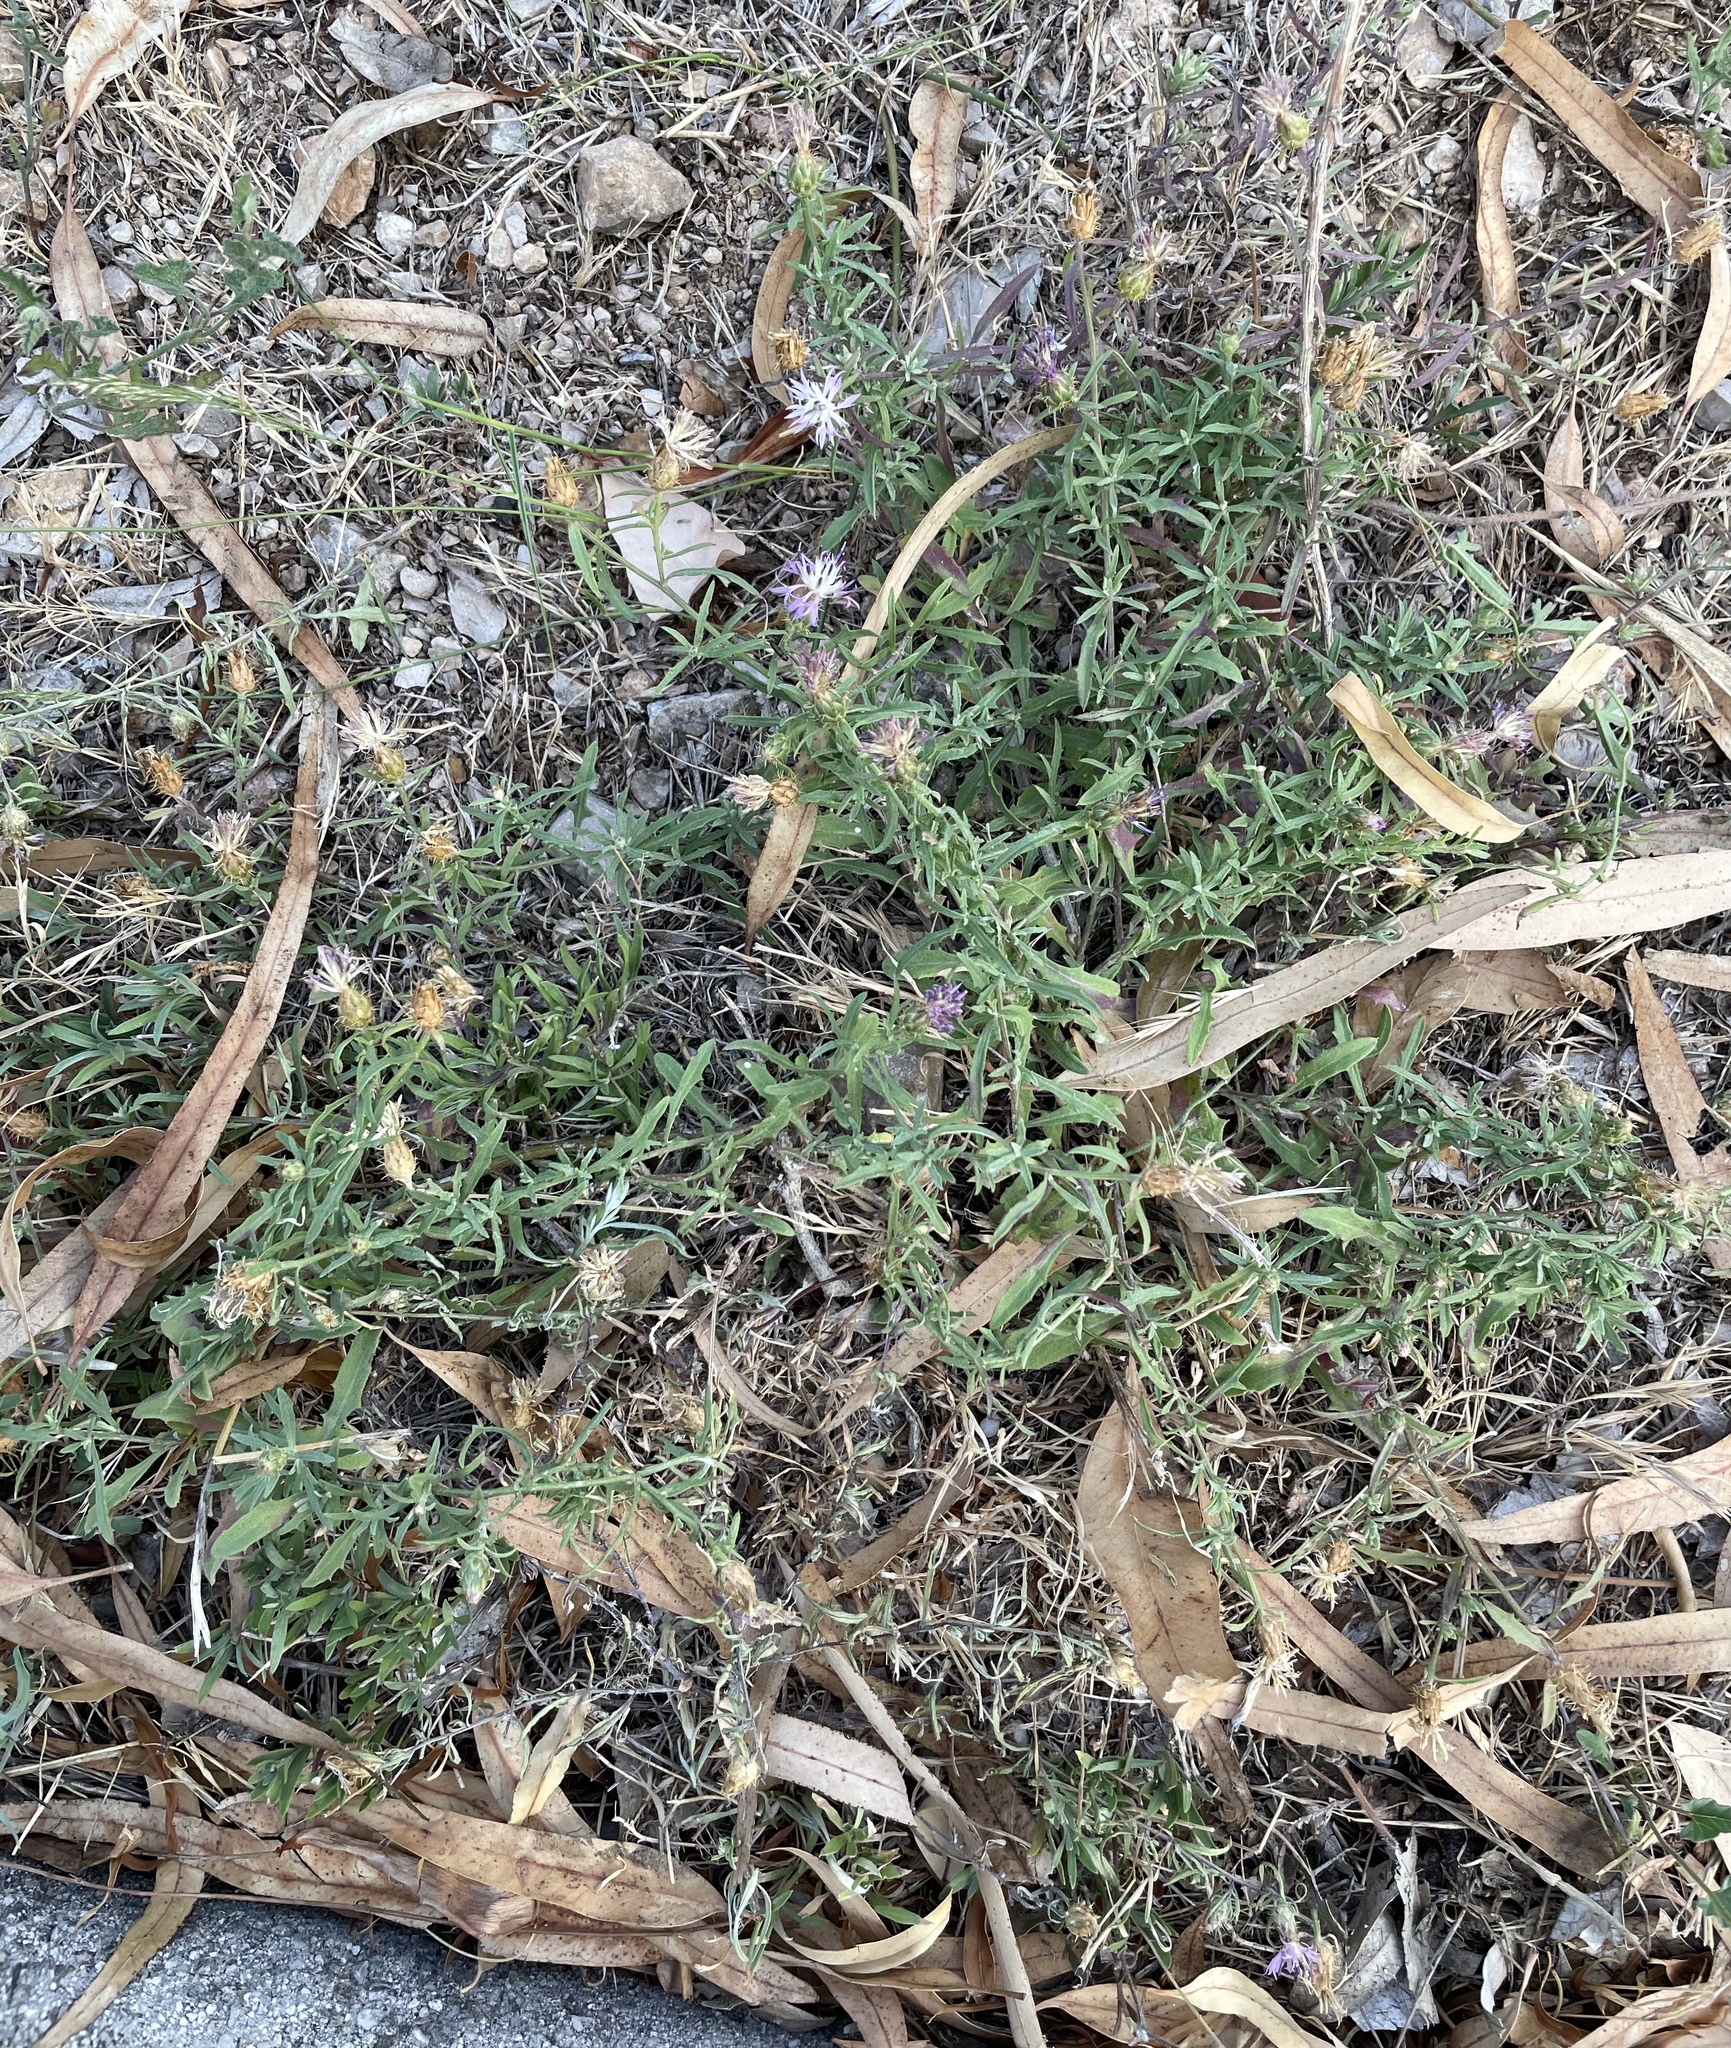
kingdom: Plantae
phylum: Tracheophyta
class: Magnoliopsida
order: Asterales
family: Asteraceae
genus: Centaurea
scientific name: Centaurea aspera
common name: Rough star-thistle
